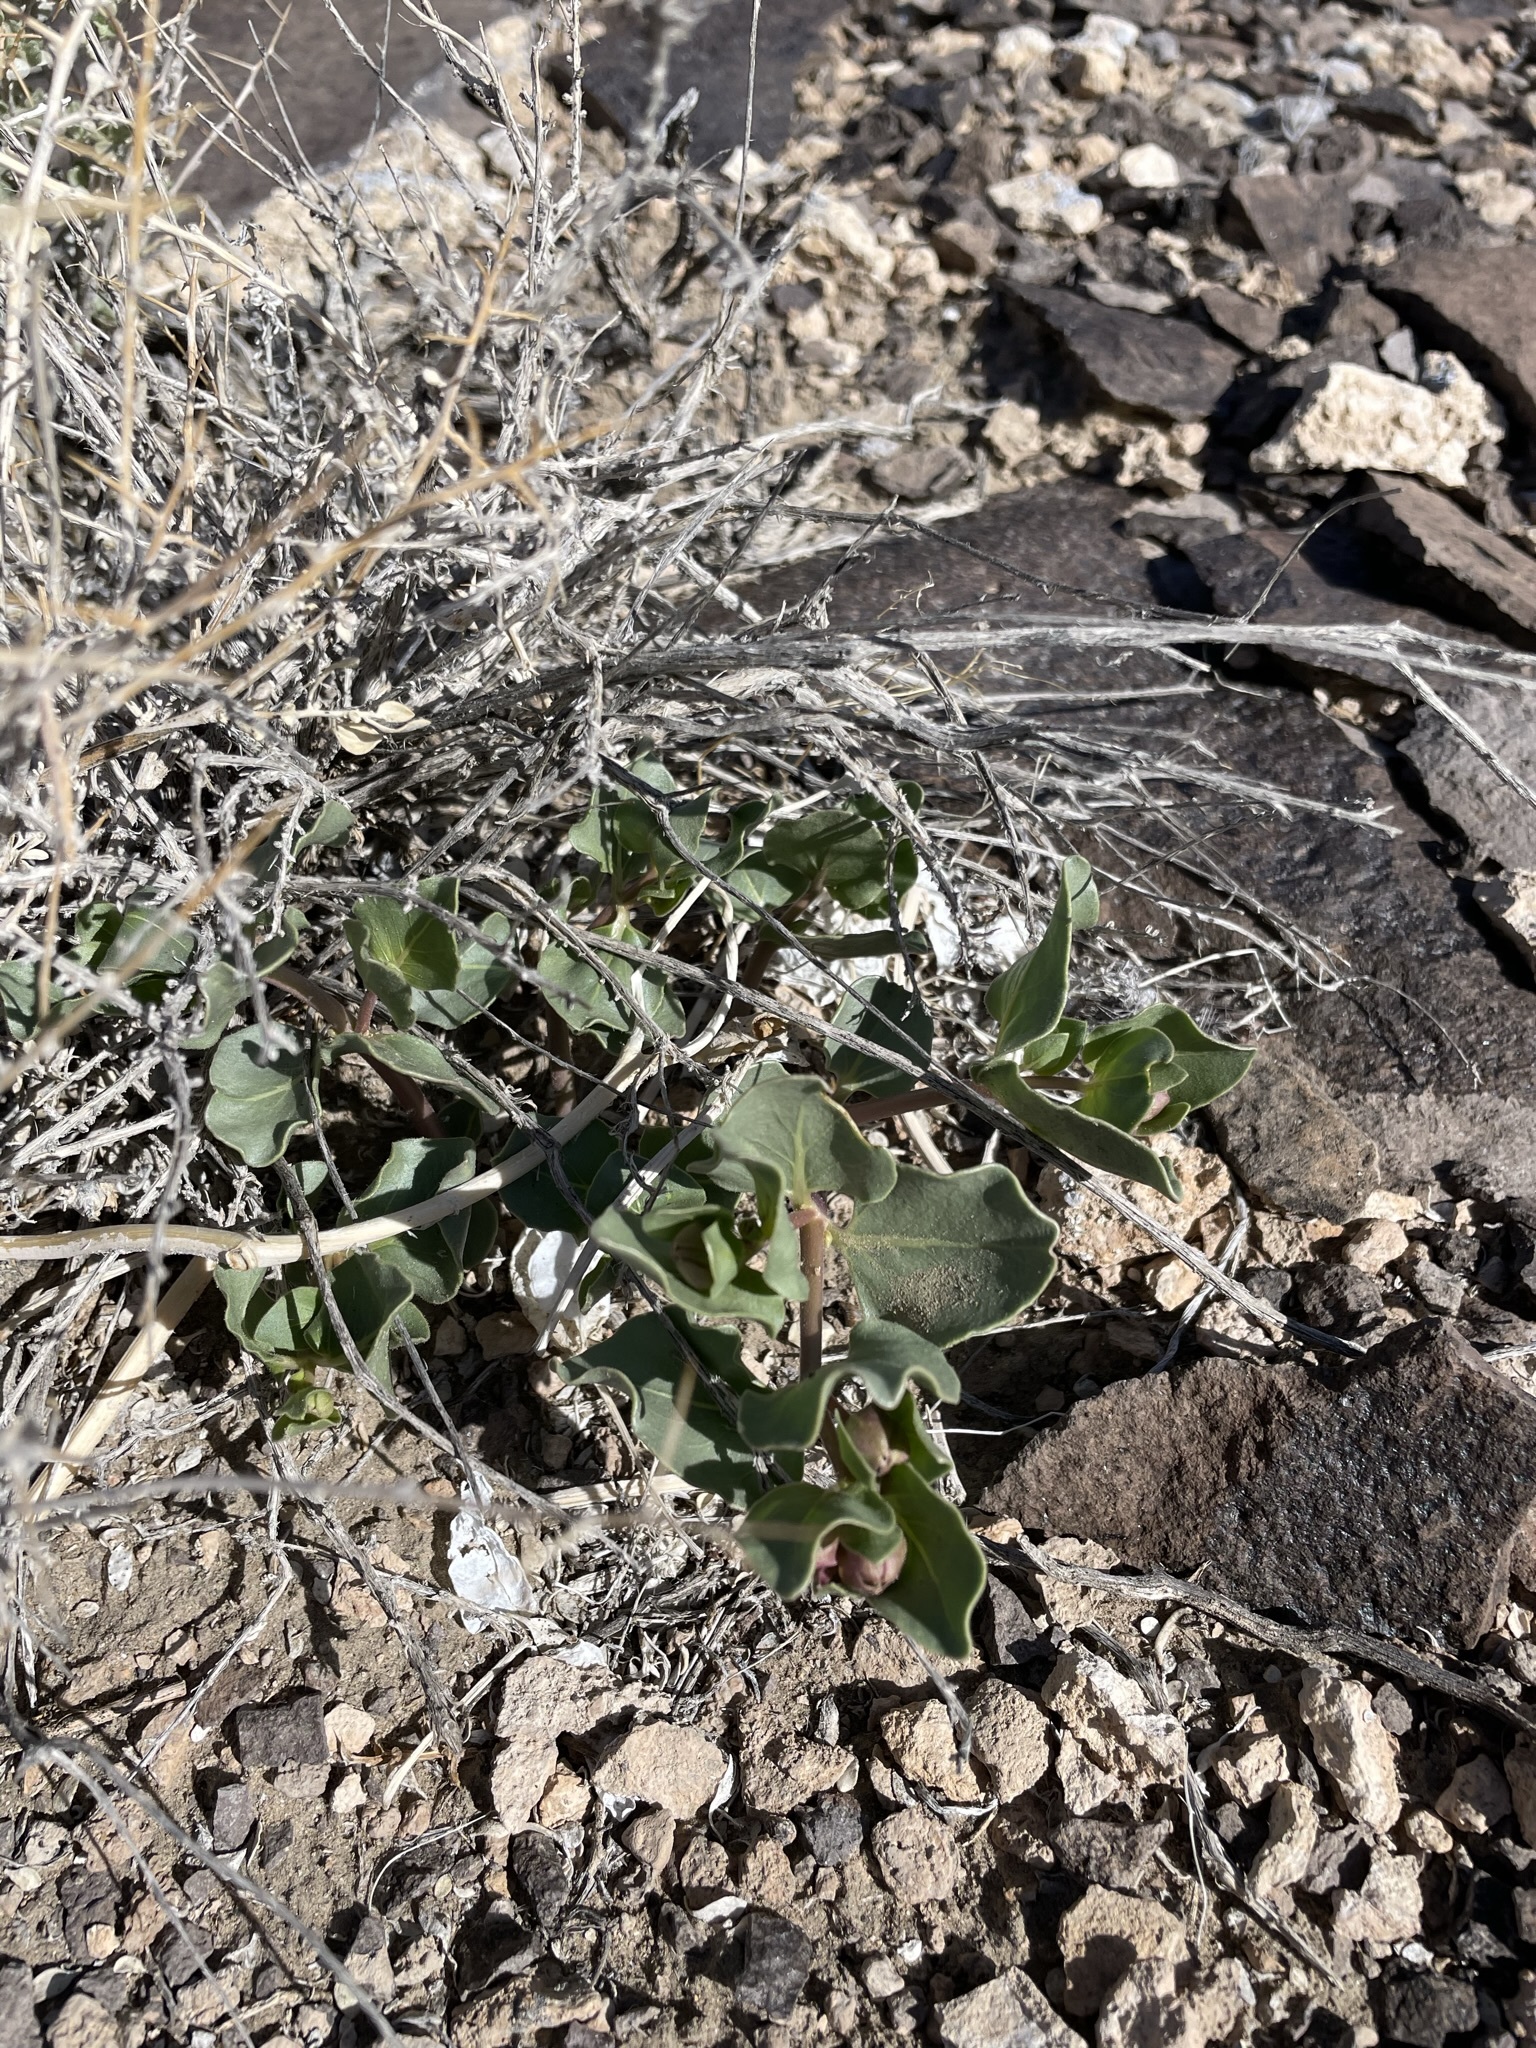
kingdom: Plantae
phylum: Tracheophyta
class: Magnoliopsida
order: Caryophyllales
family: Nyctaginaceae
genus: Mirabilis
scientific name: Mirabilis alipes
